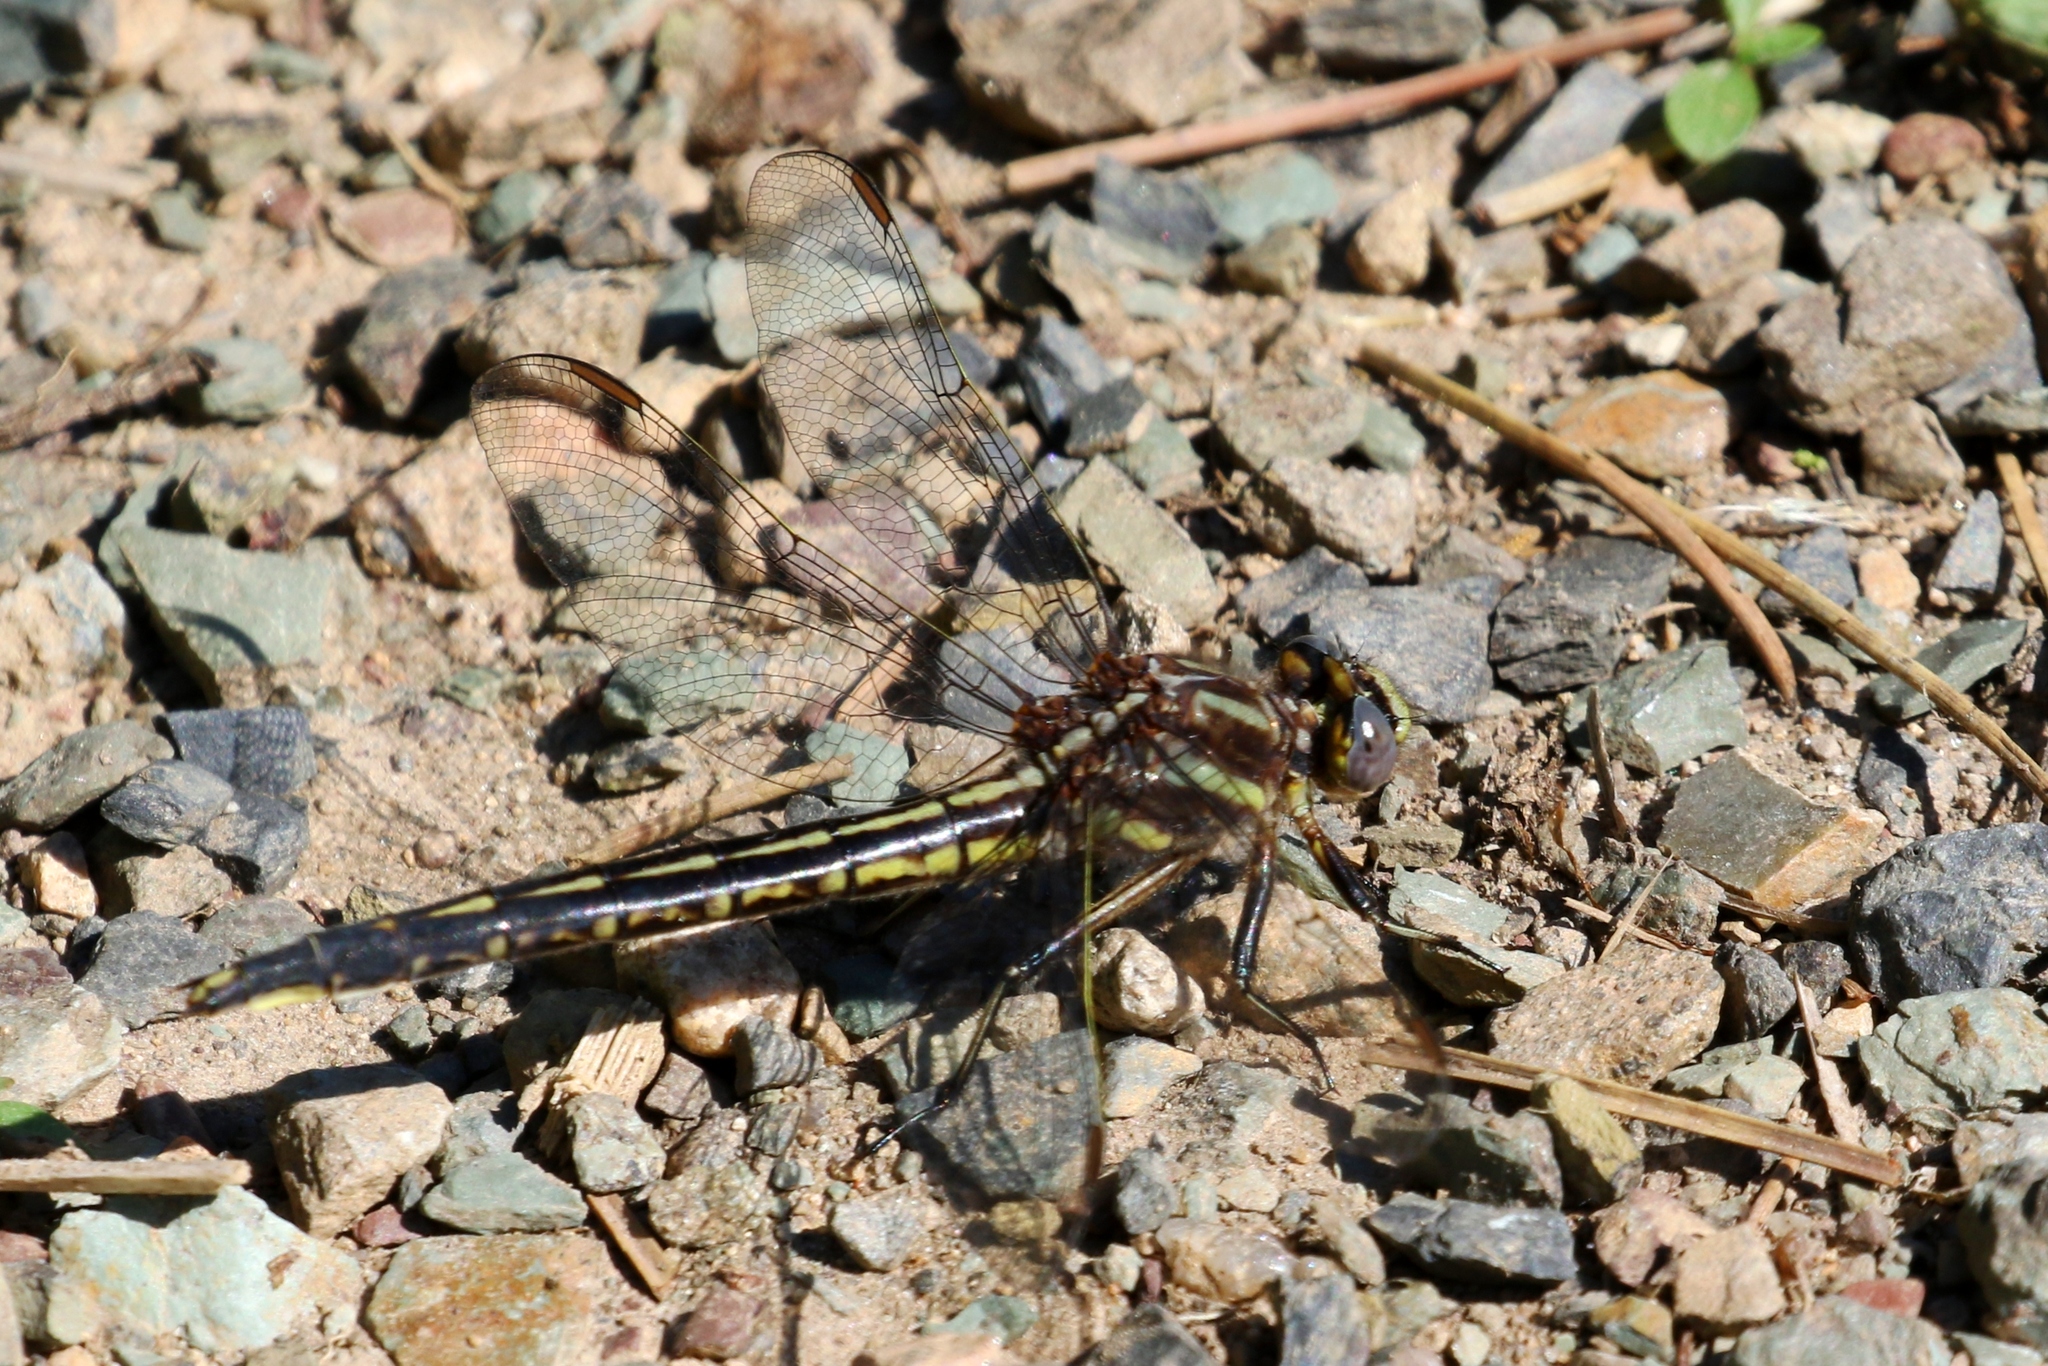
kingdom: Animalia
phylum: Arthropoda
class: Insecta
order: Odonata
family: Gomphidae
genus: Phanogomphus
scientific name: Phanogomphus spicatus
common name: Dusky clubtail
